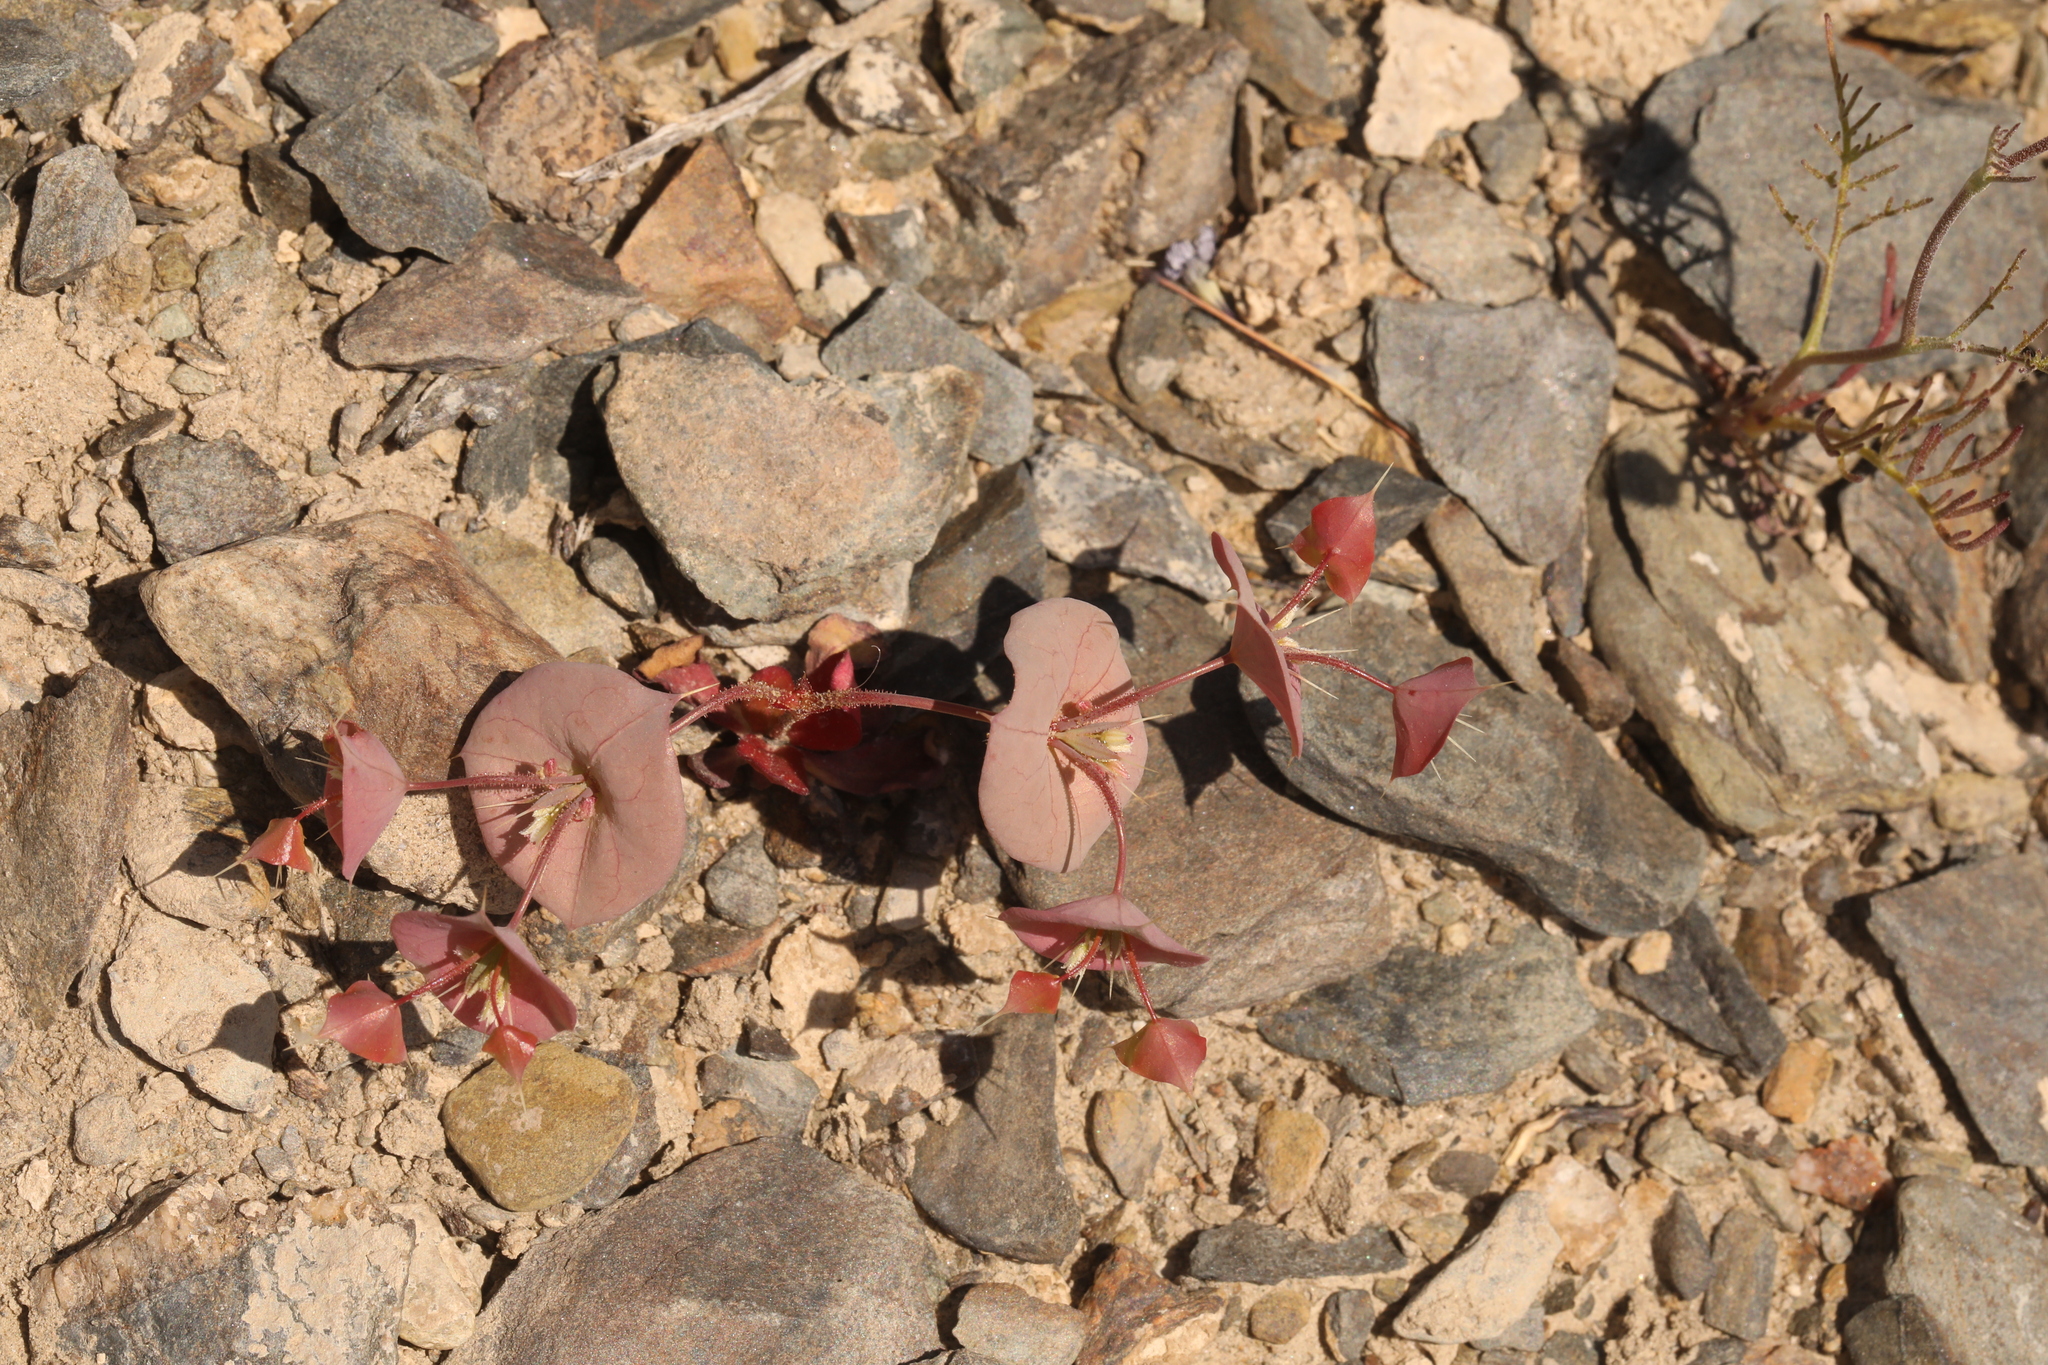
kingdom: Plantae
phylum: Tracheophyta
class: Magnoliopsida
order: Caryophyllales
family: Polygonaceae
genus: Oxytheca
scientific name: Oxytheca perfoliata
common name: Round-leaf puncturebract
